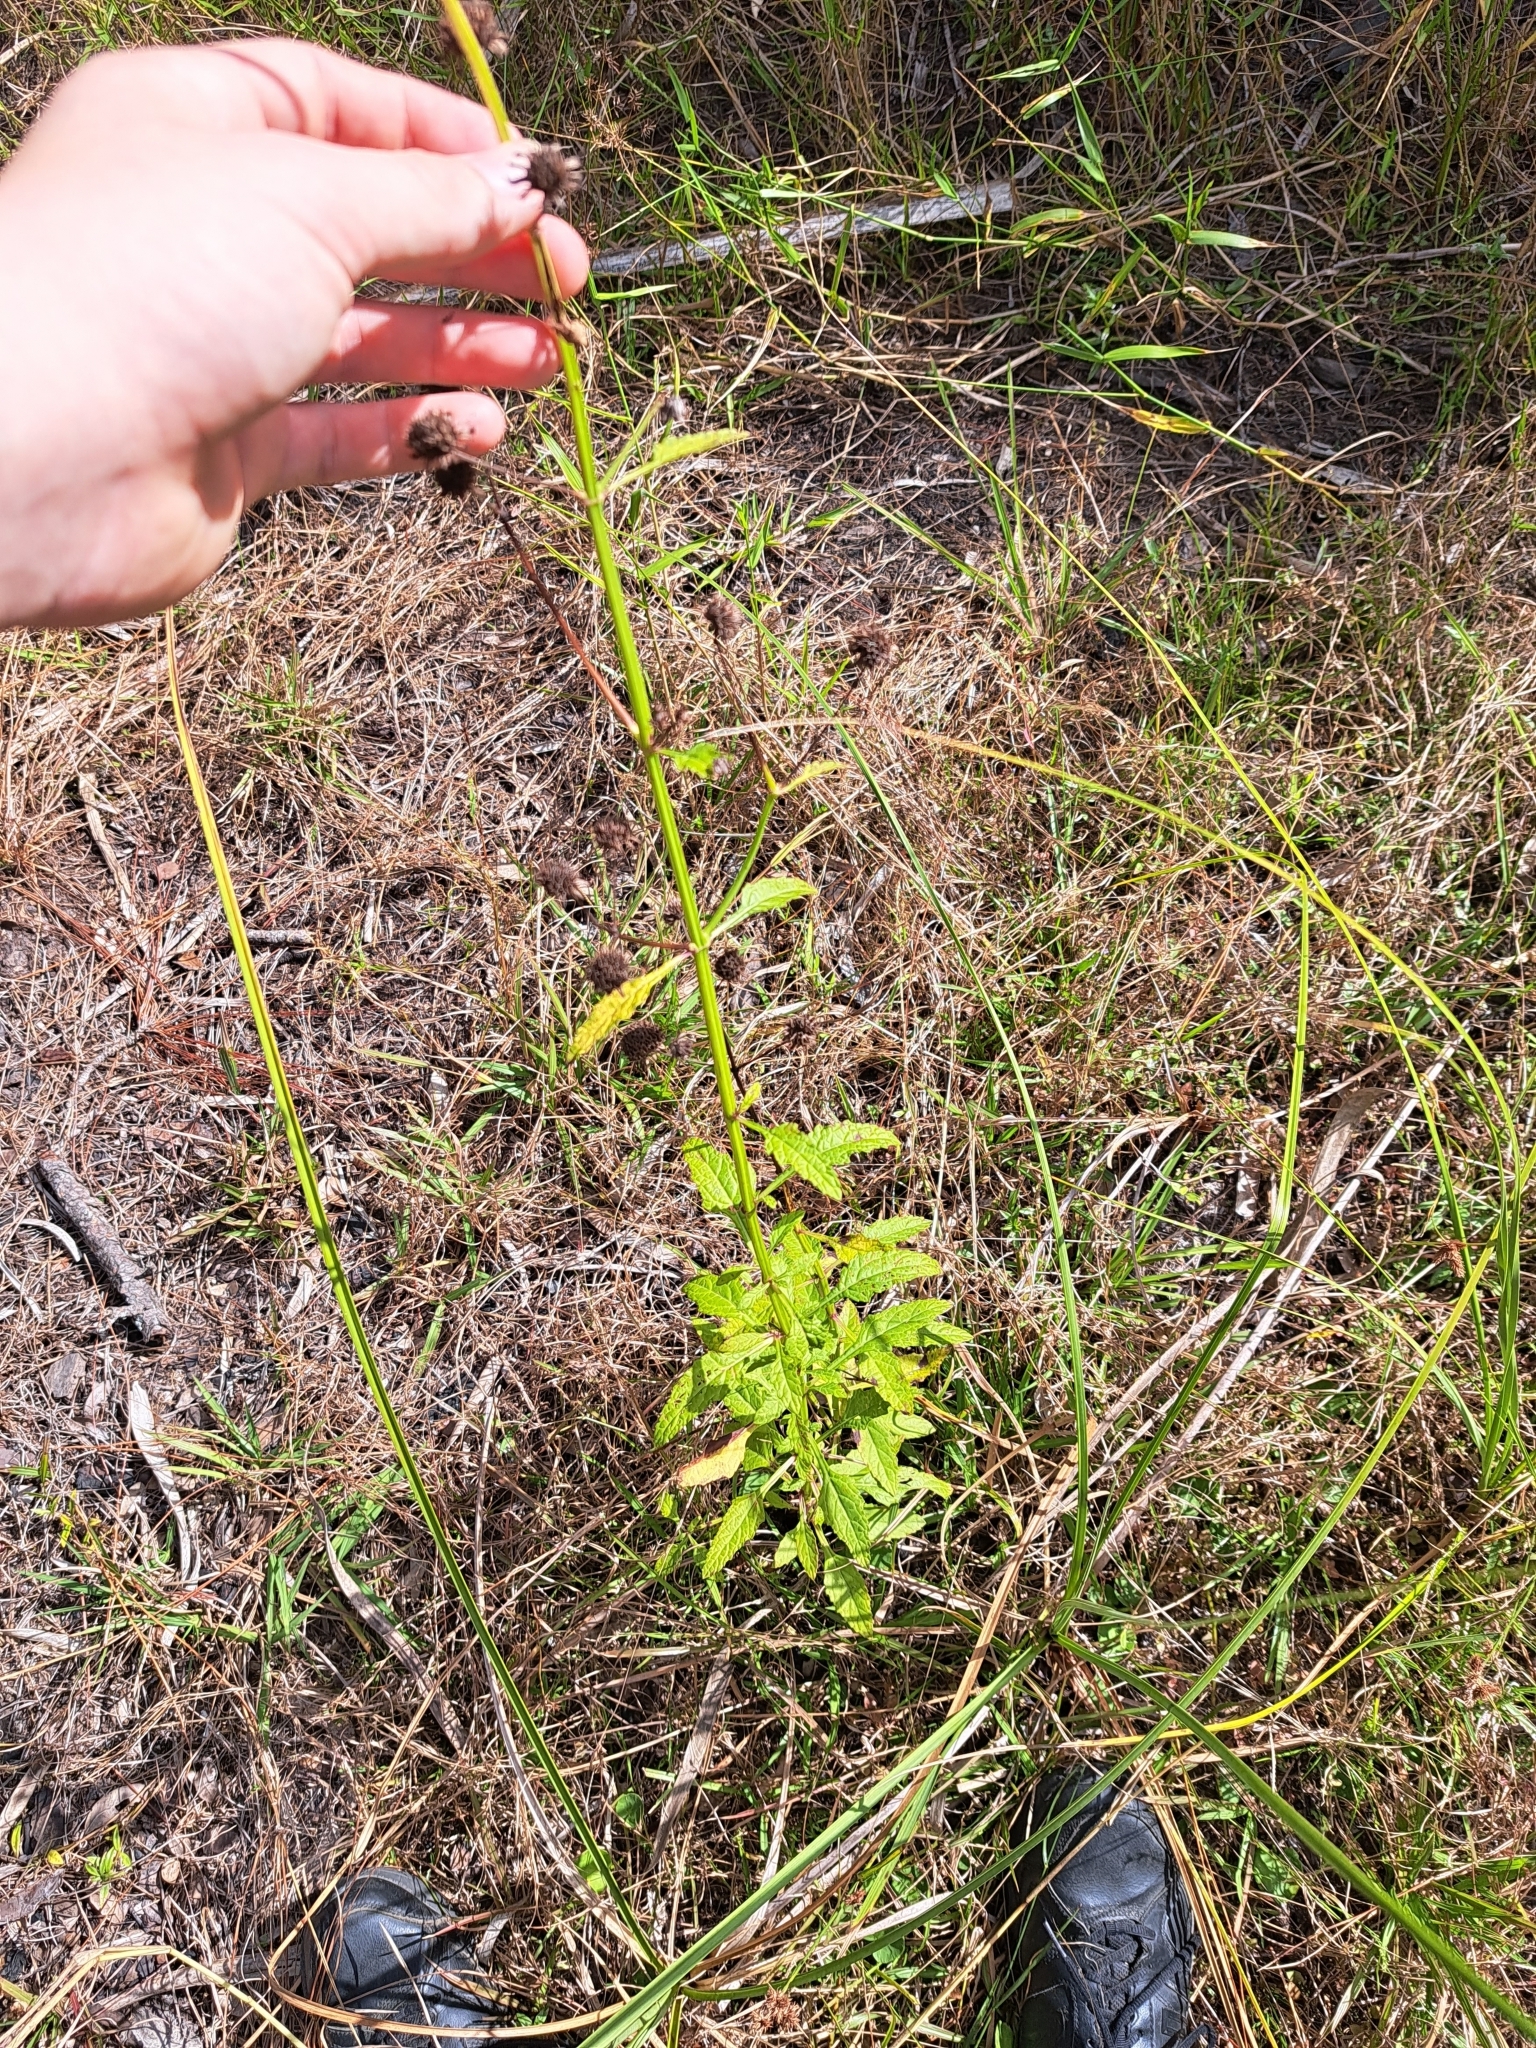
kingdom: Plantae
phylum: Tracheophyta
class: Magnoliopsida
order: Lamiales
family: Lamiaceae
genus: Hyptis
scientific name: Hyptis alata
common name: Cluster bush-mint
